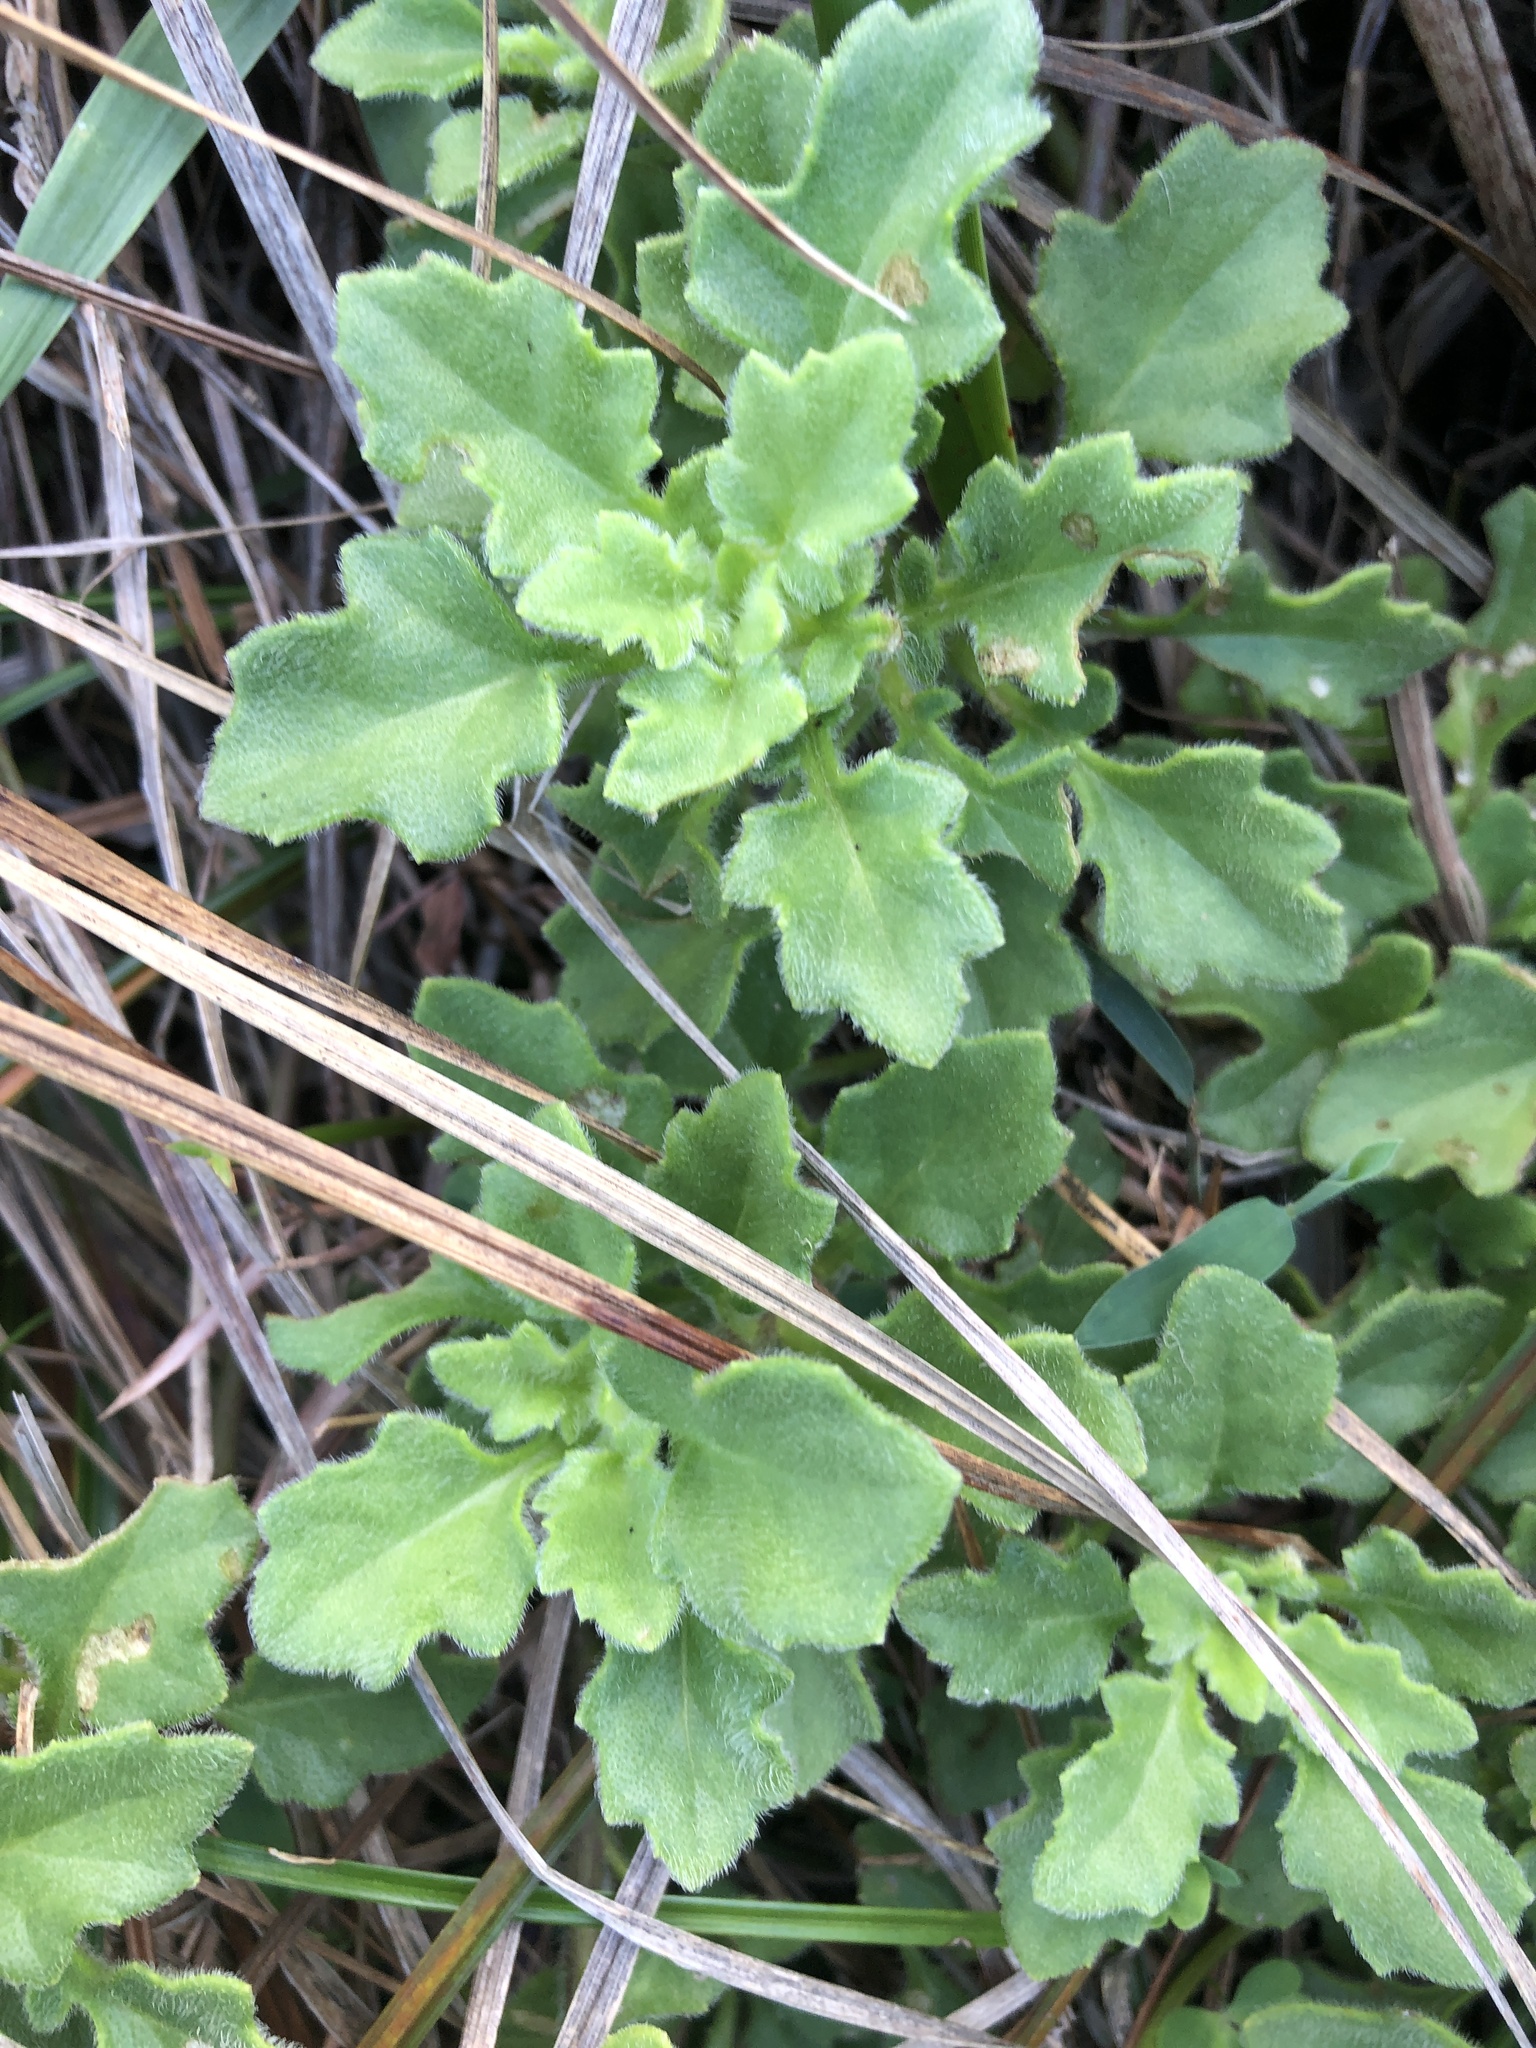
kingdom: Plantae
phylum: Tracheophyta
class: Magnoliopsida
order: Asterales
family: Asteraceae
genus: Gynura
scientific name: Gynura formosana
